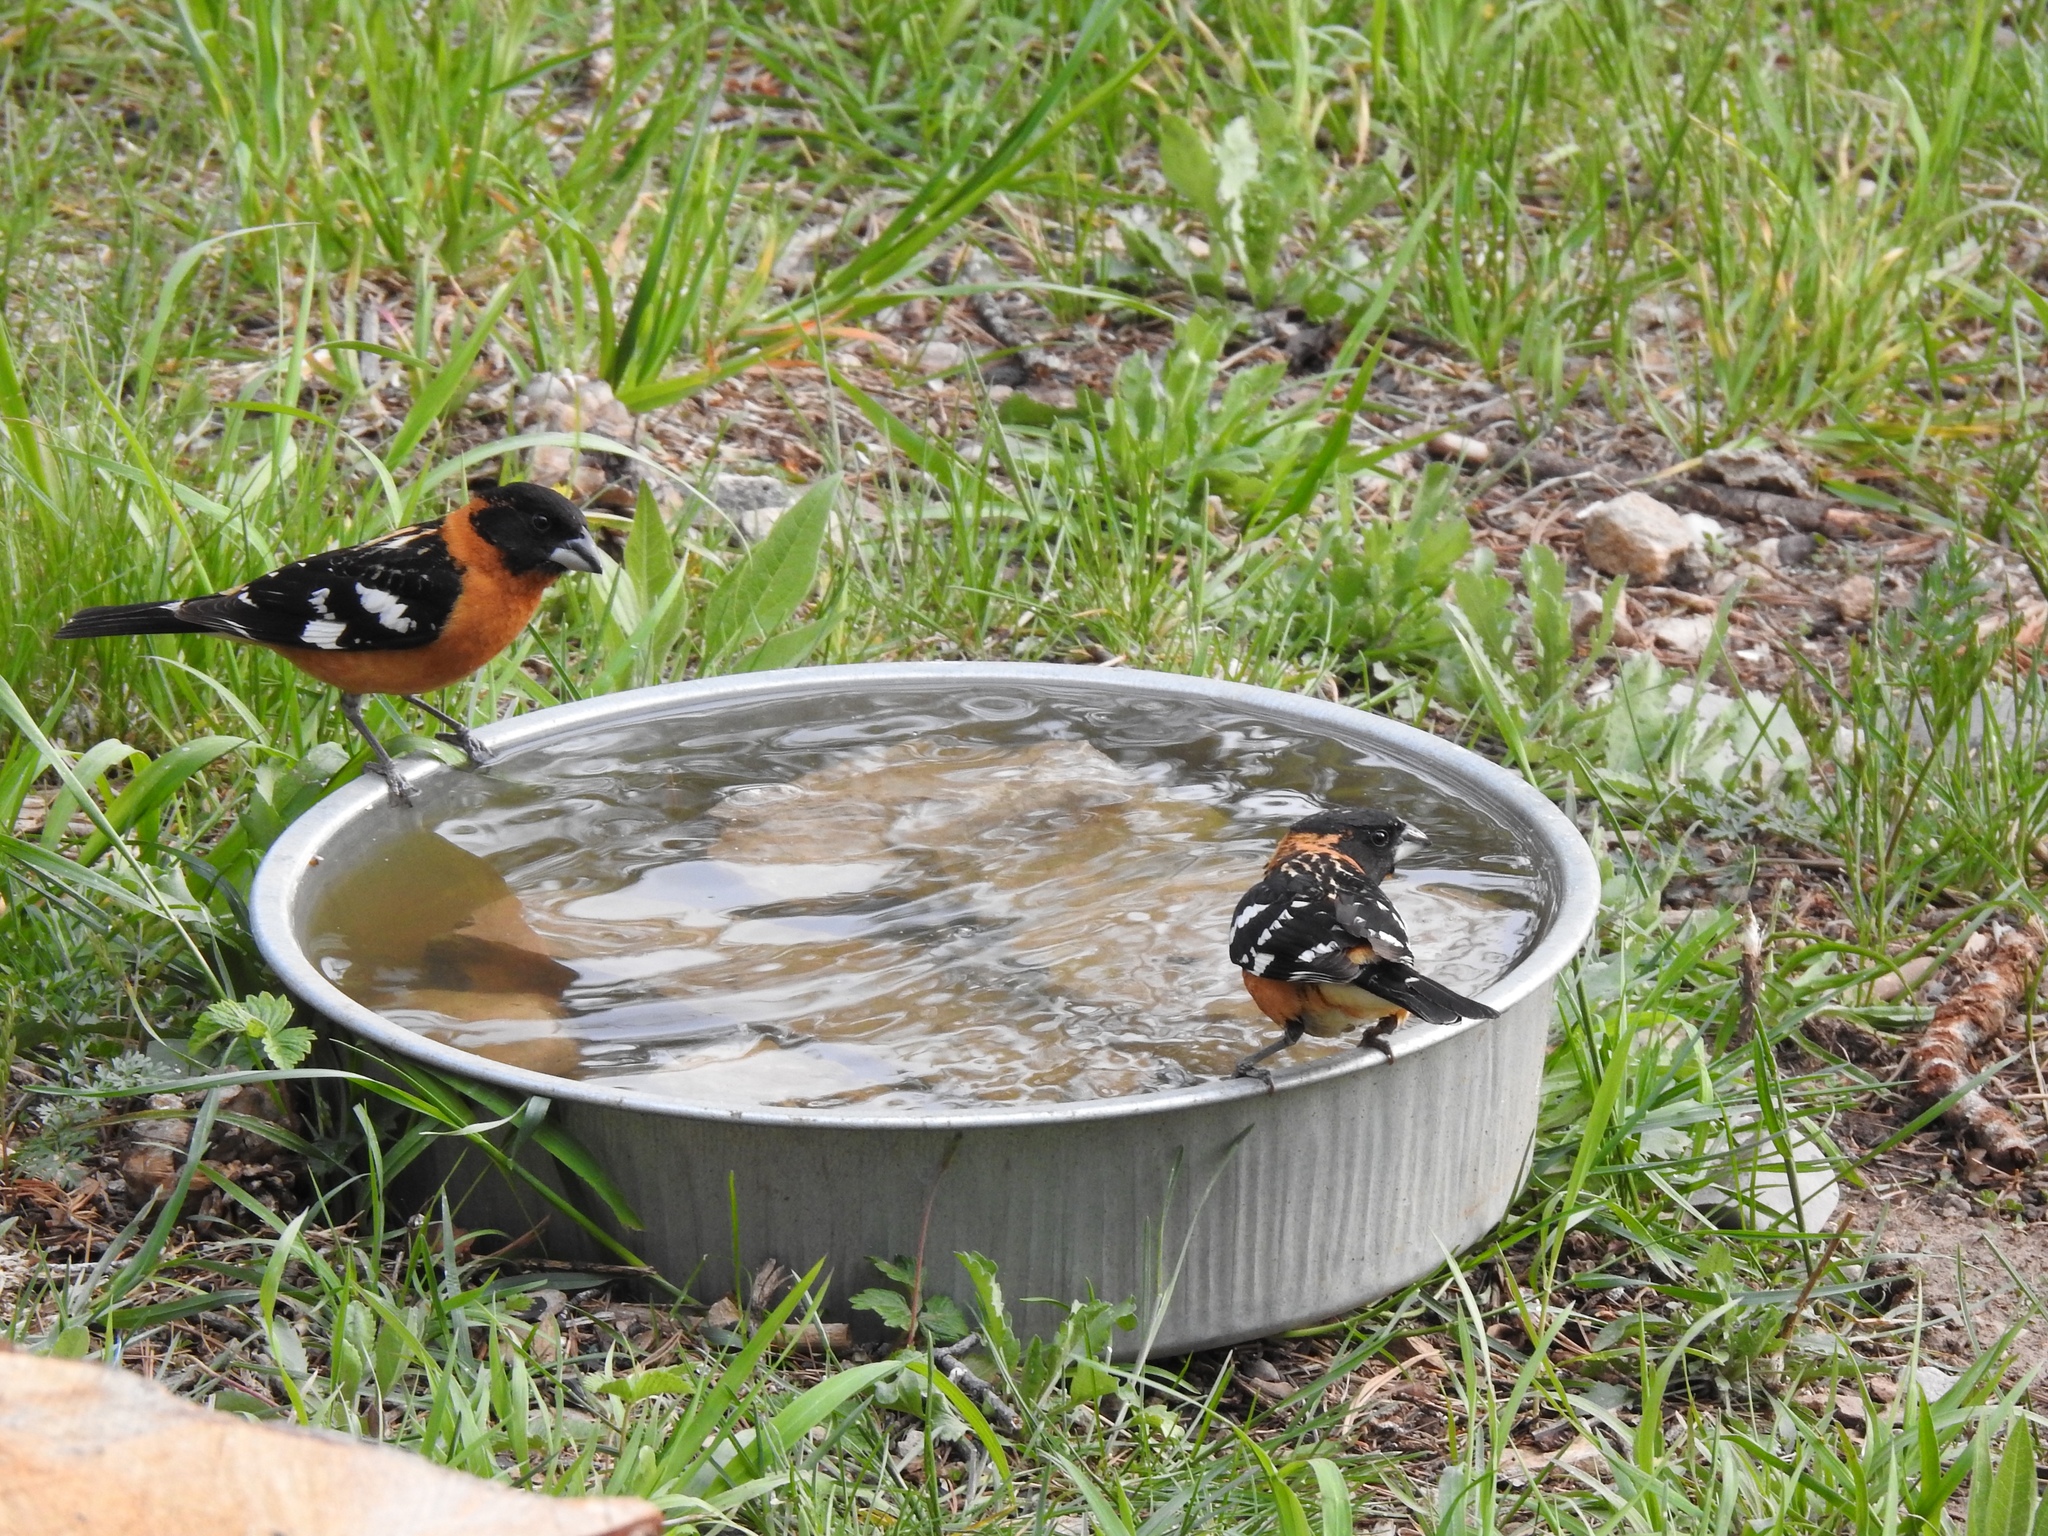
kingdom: Animalia
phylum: Chordata
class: Aves
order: Passeriformes
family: Cardinalidae
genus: Pheucticus
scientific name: Pheucticus melanocephalus
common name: Black-headed grosbeak
